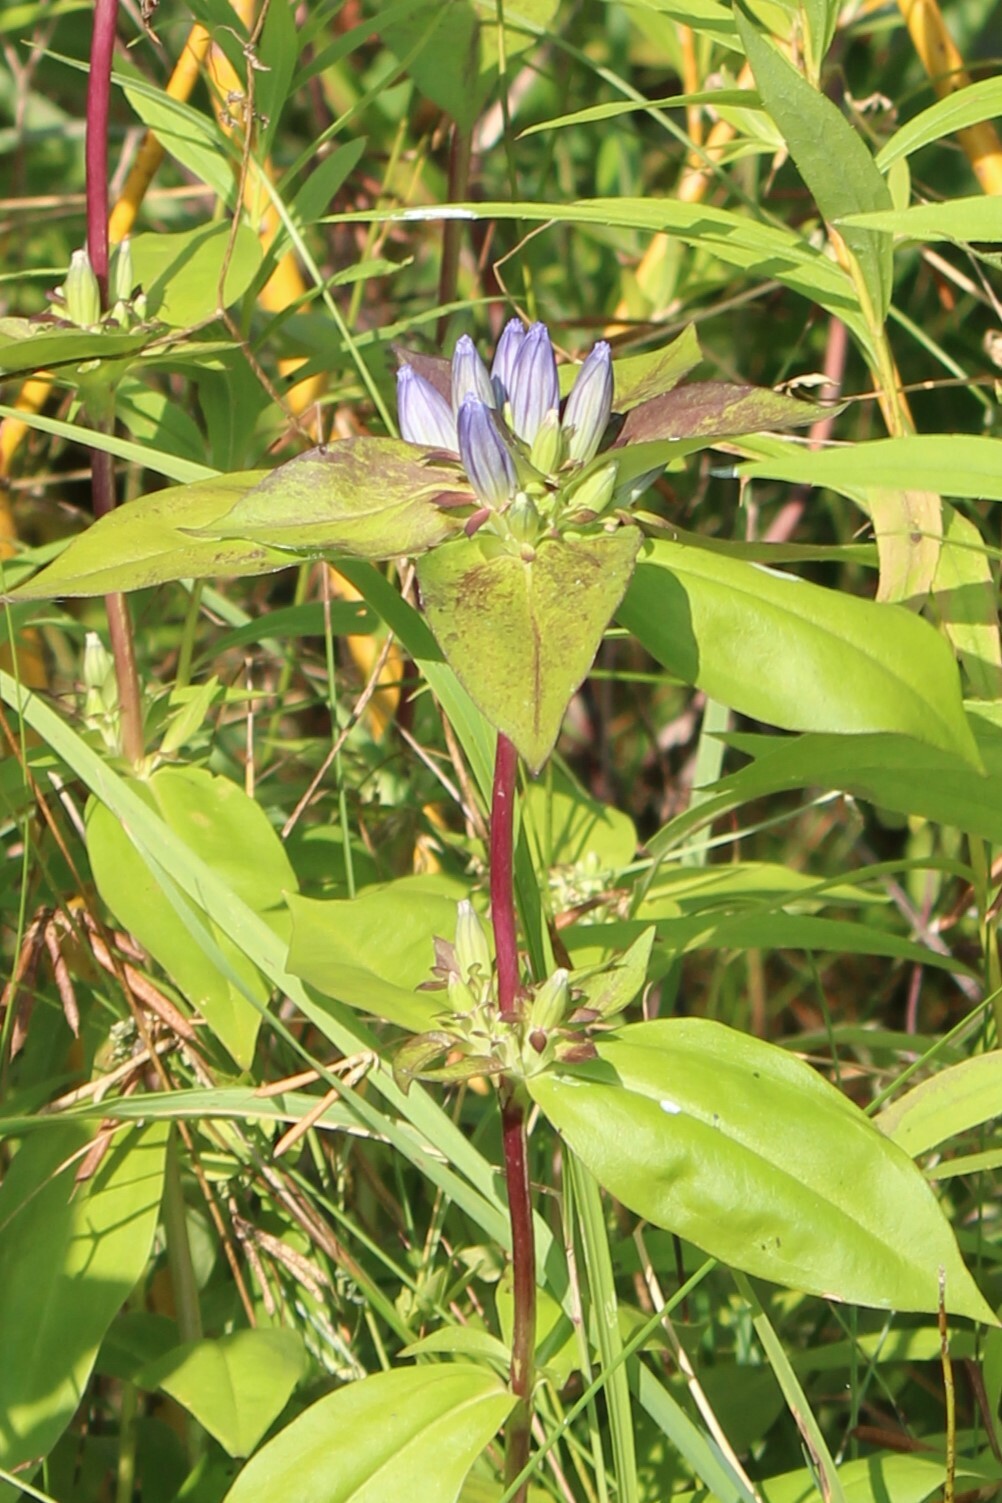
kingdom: Plantae
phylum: Tracheophyta
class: Magnoliopsida
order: Gentianales
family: Gentianaceae
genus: Gentiana
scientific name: Gentiana andrewsii
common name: Bottle gentian
